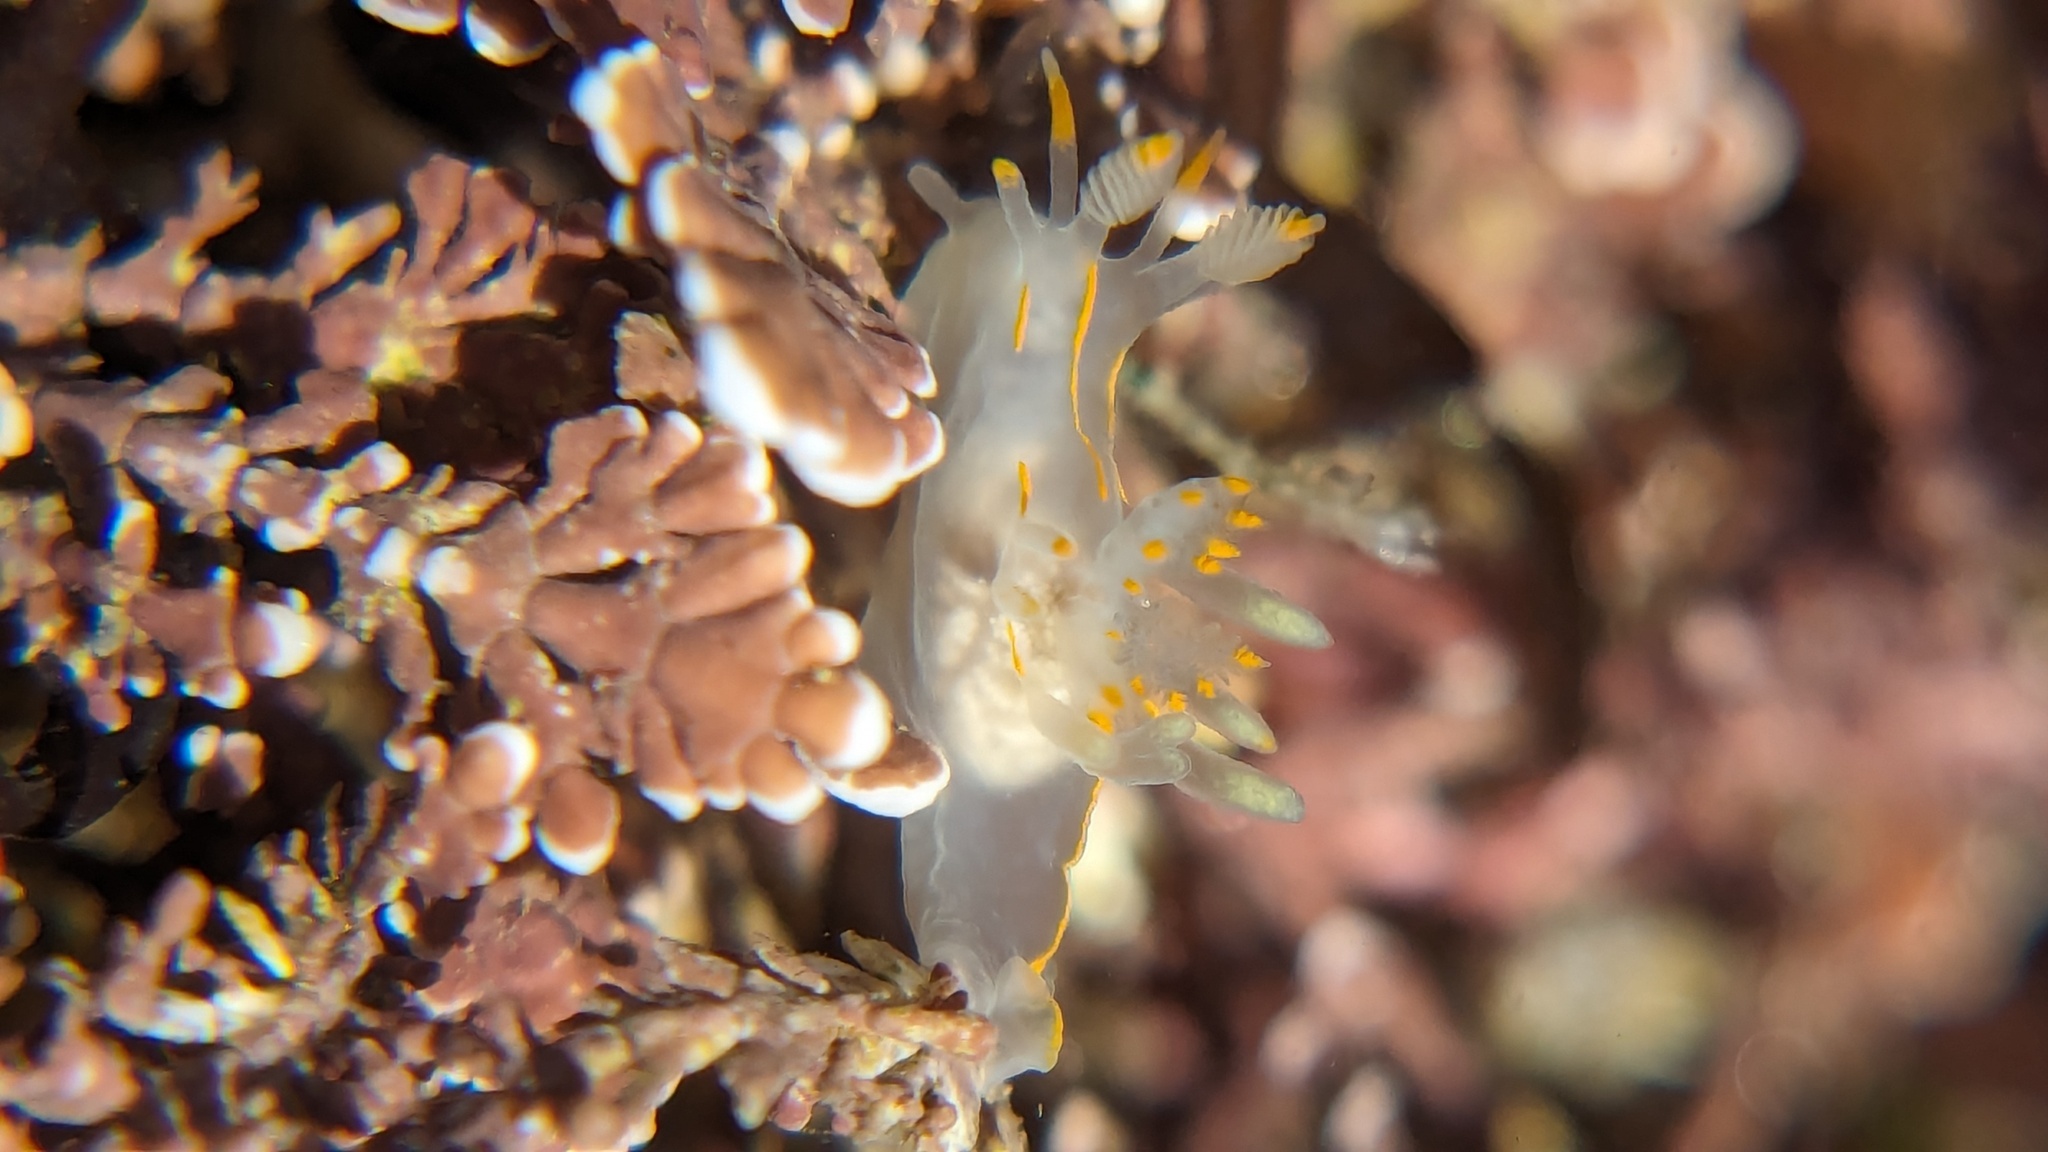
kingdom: Animalia
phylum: Mollusca
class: Gastropoda
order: Nudibranchia
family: Goniodorididae
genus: Ancula
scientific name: Ancula pacifica
